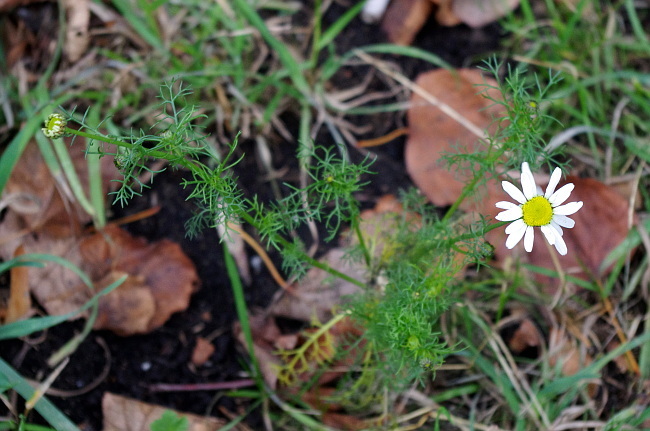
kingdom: Plantae
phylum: Tracheophyta
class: Magnoliopsida
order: Asterales
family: Asteraceae
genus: Tripleurospermum
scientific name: Tripleurospermum inodorum
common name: Scentless mayweed
